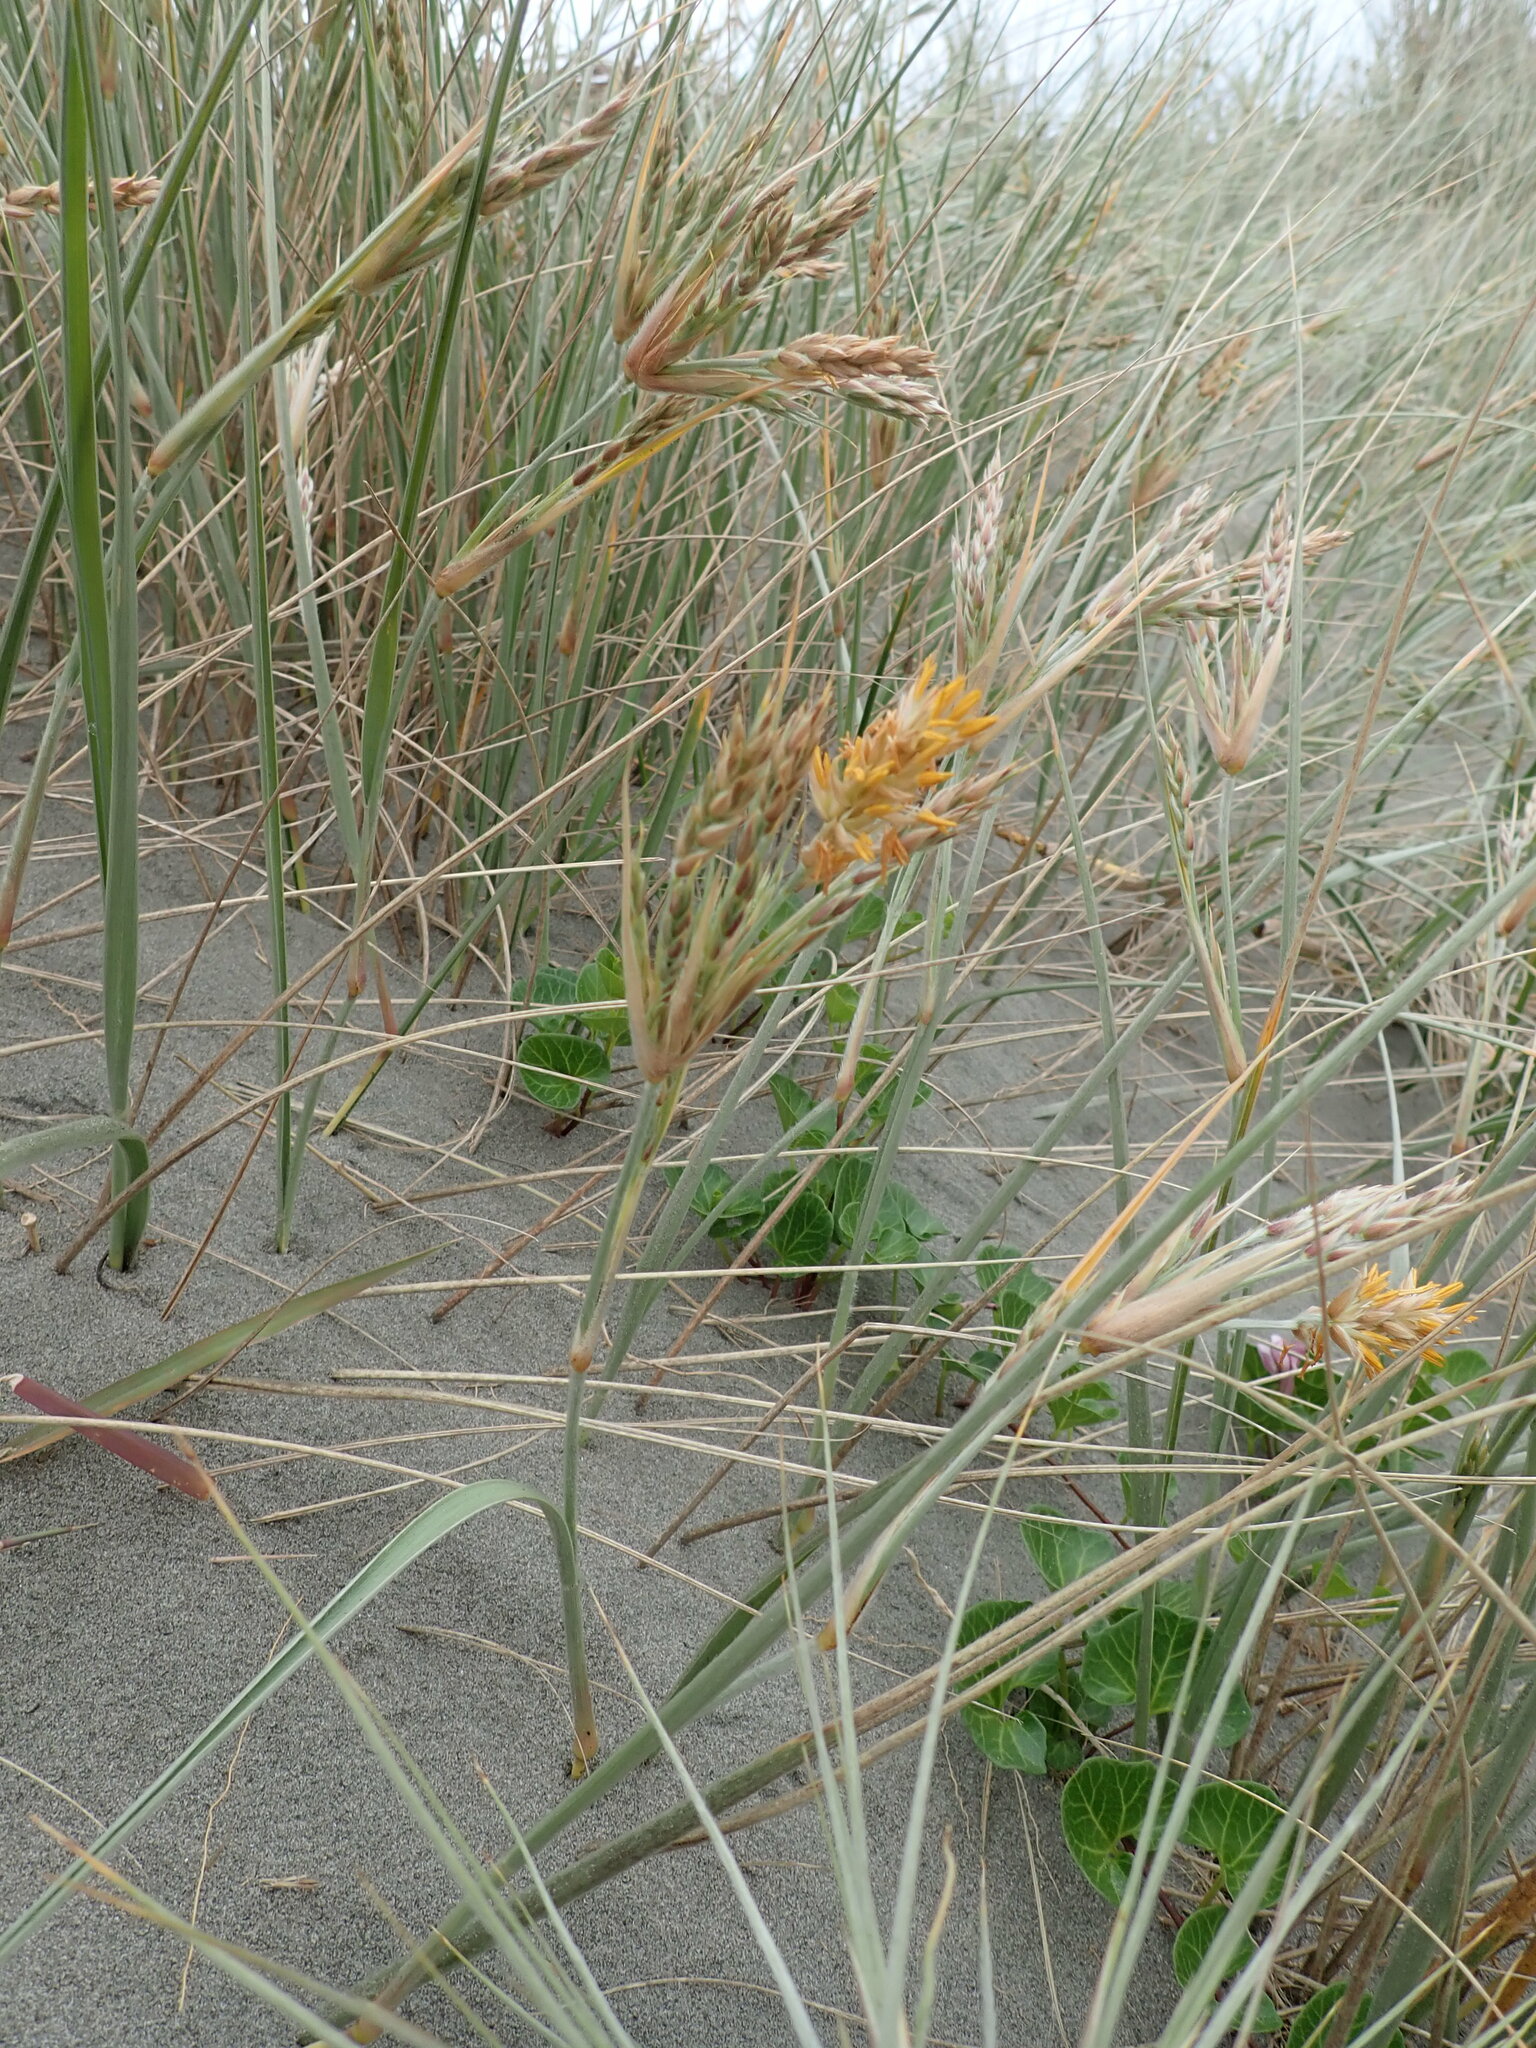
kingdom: Plantae
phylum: Tracheophyta
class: Liliopsida
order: Poales
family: Poaceae
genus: Spinifex
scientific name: Spinifex sericeus
